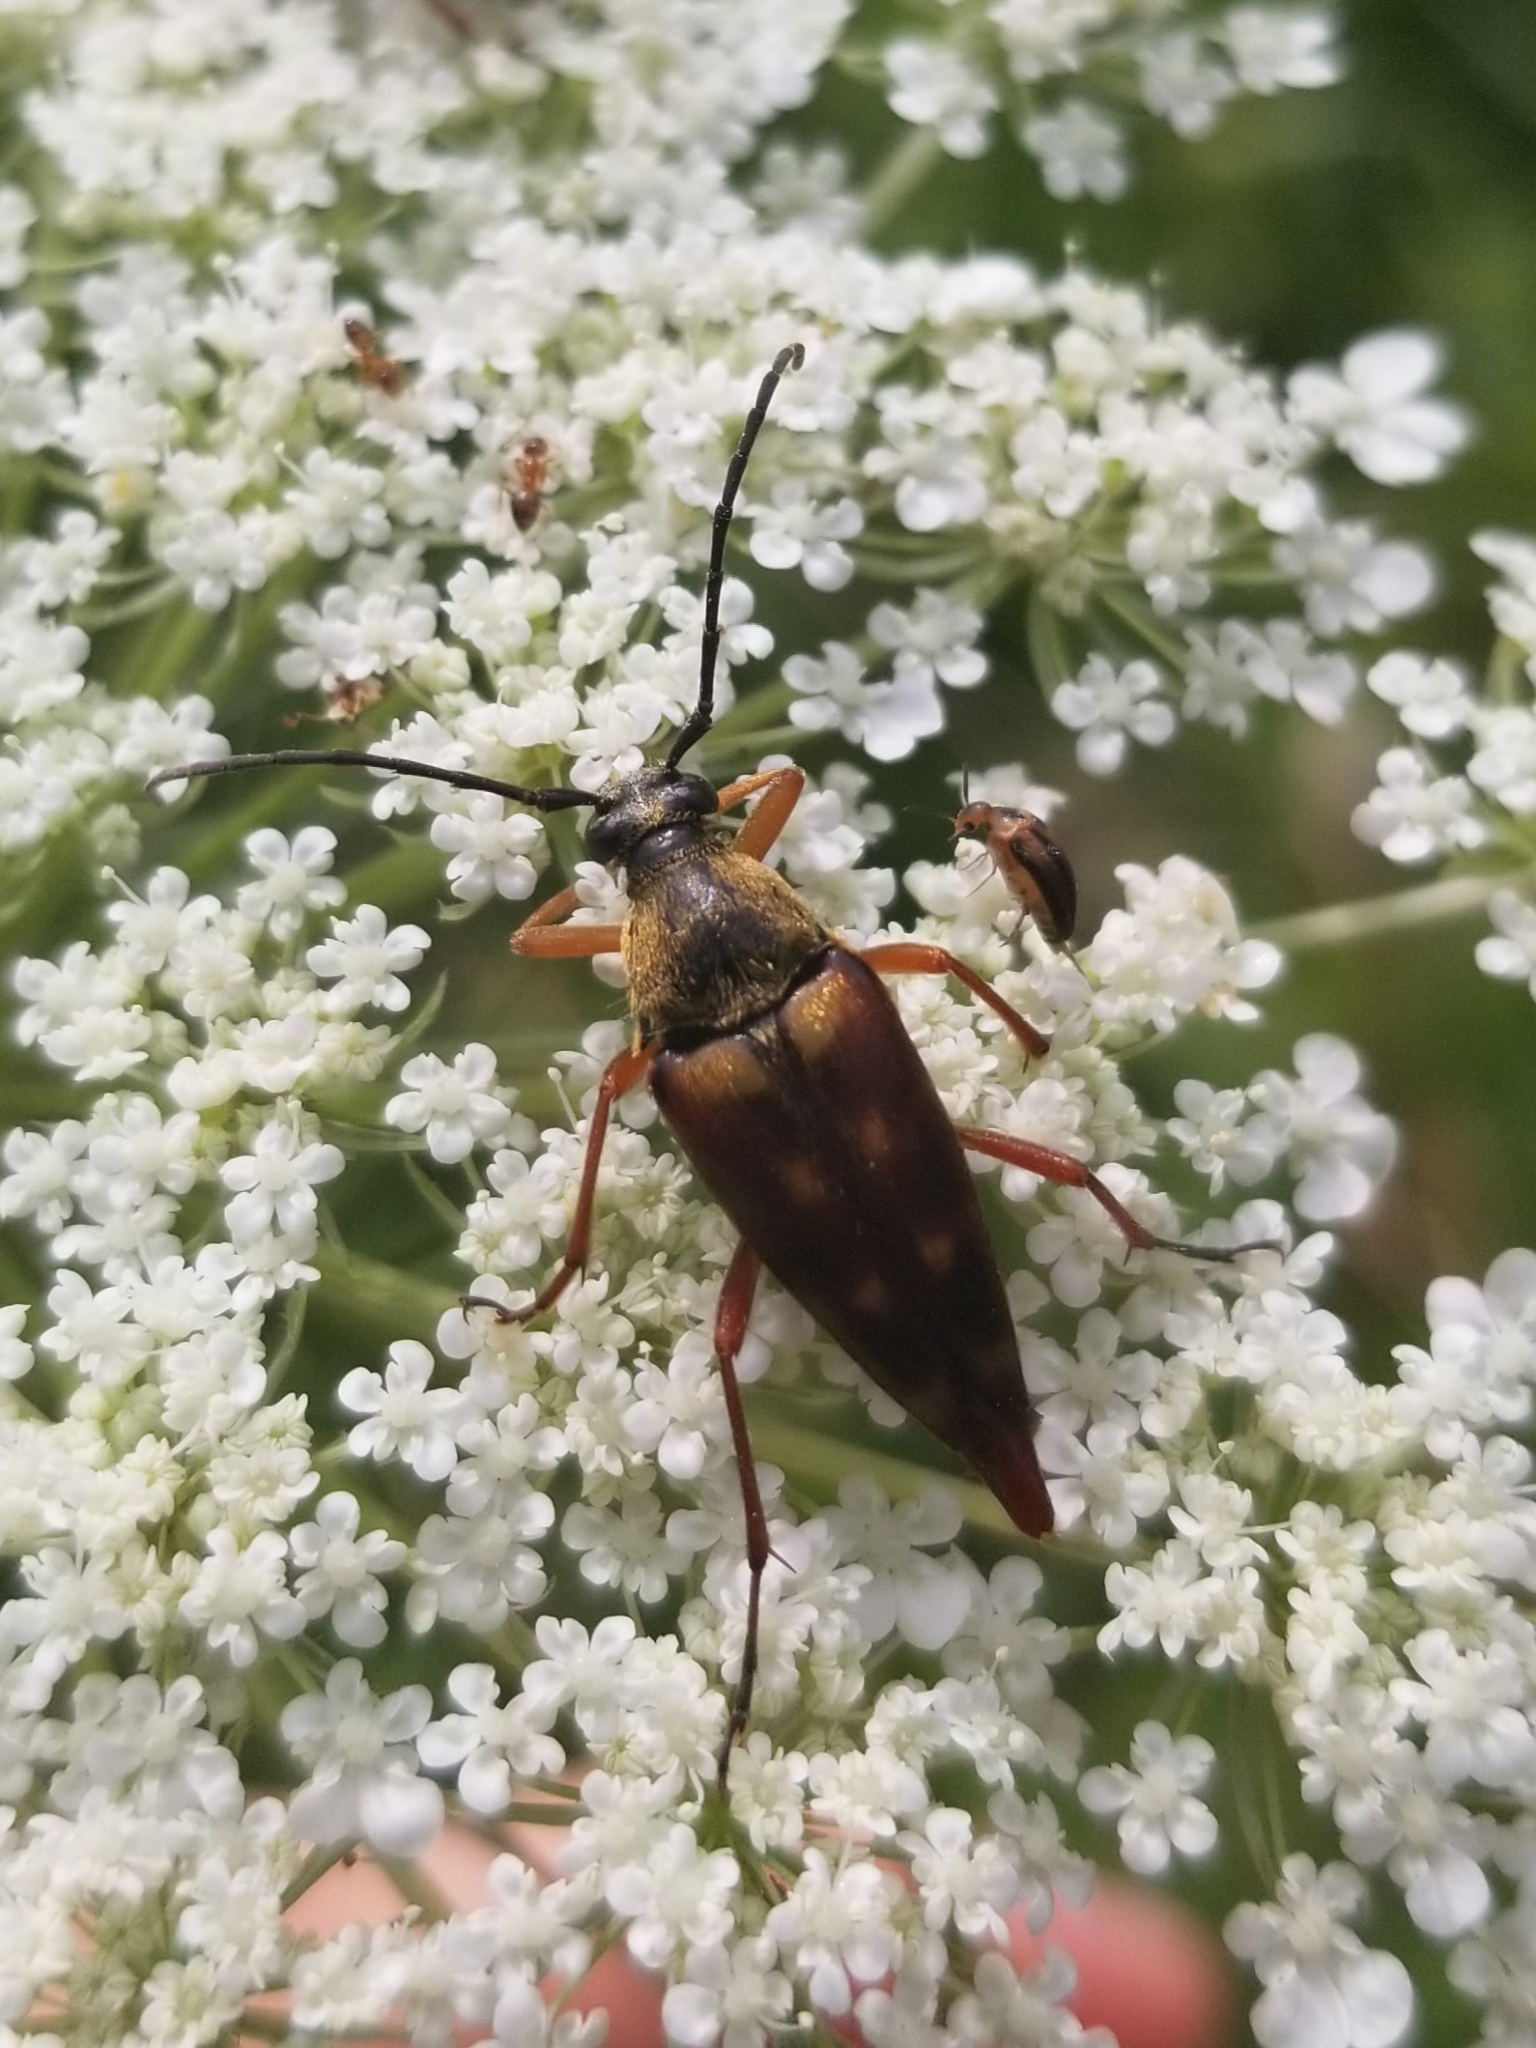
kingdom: Animalia
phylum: Arthropoda
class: Insecta
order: Coleoptera
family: Cerambycidae
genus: Typocerus
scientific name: Typocerus velutinus
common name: Banded longhorn beetle
